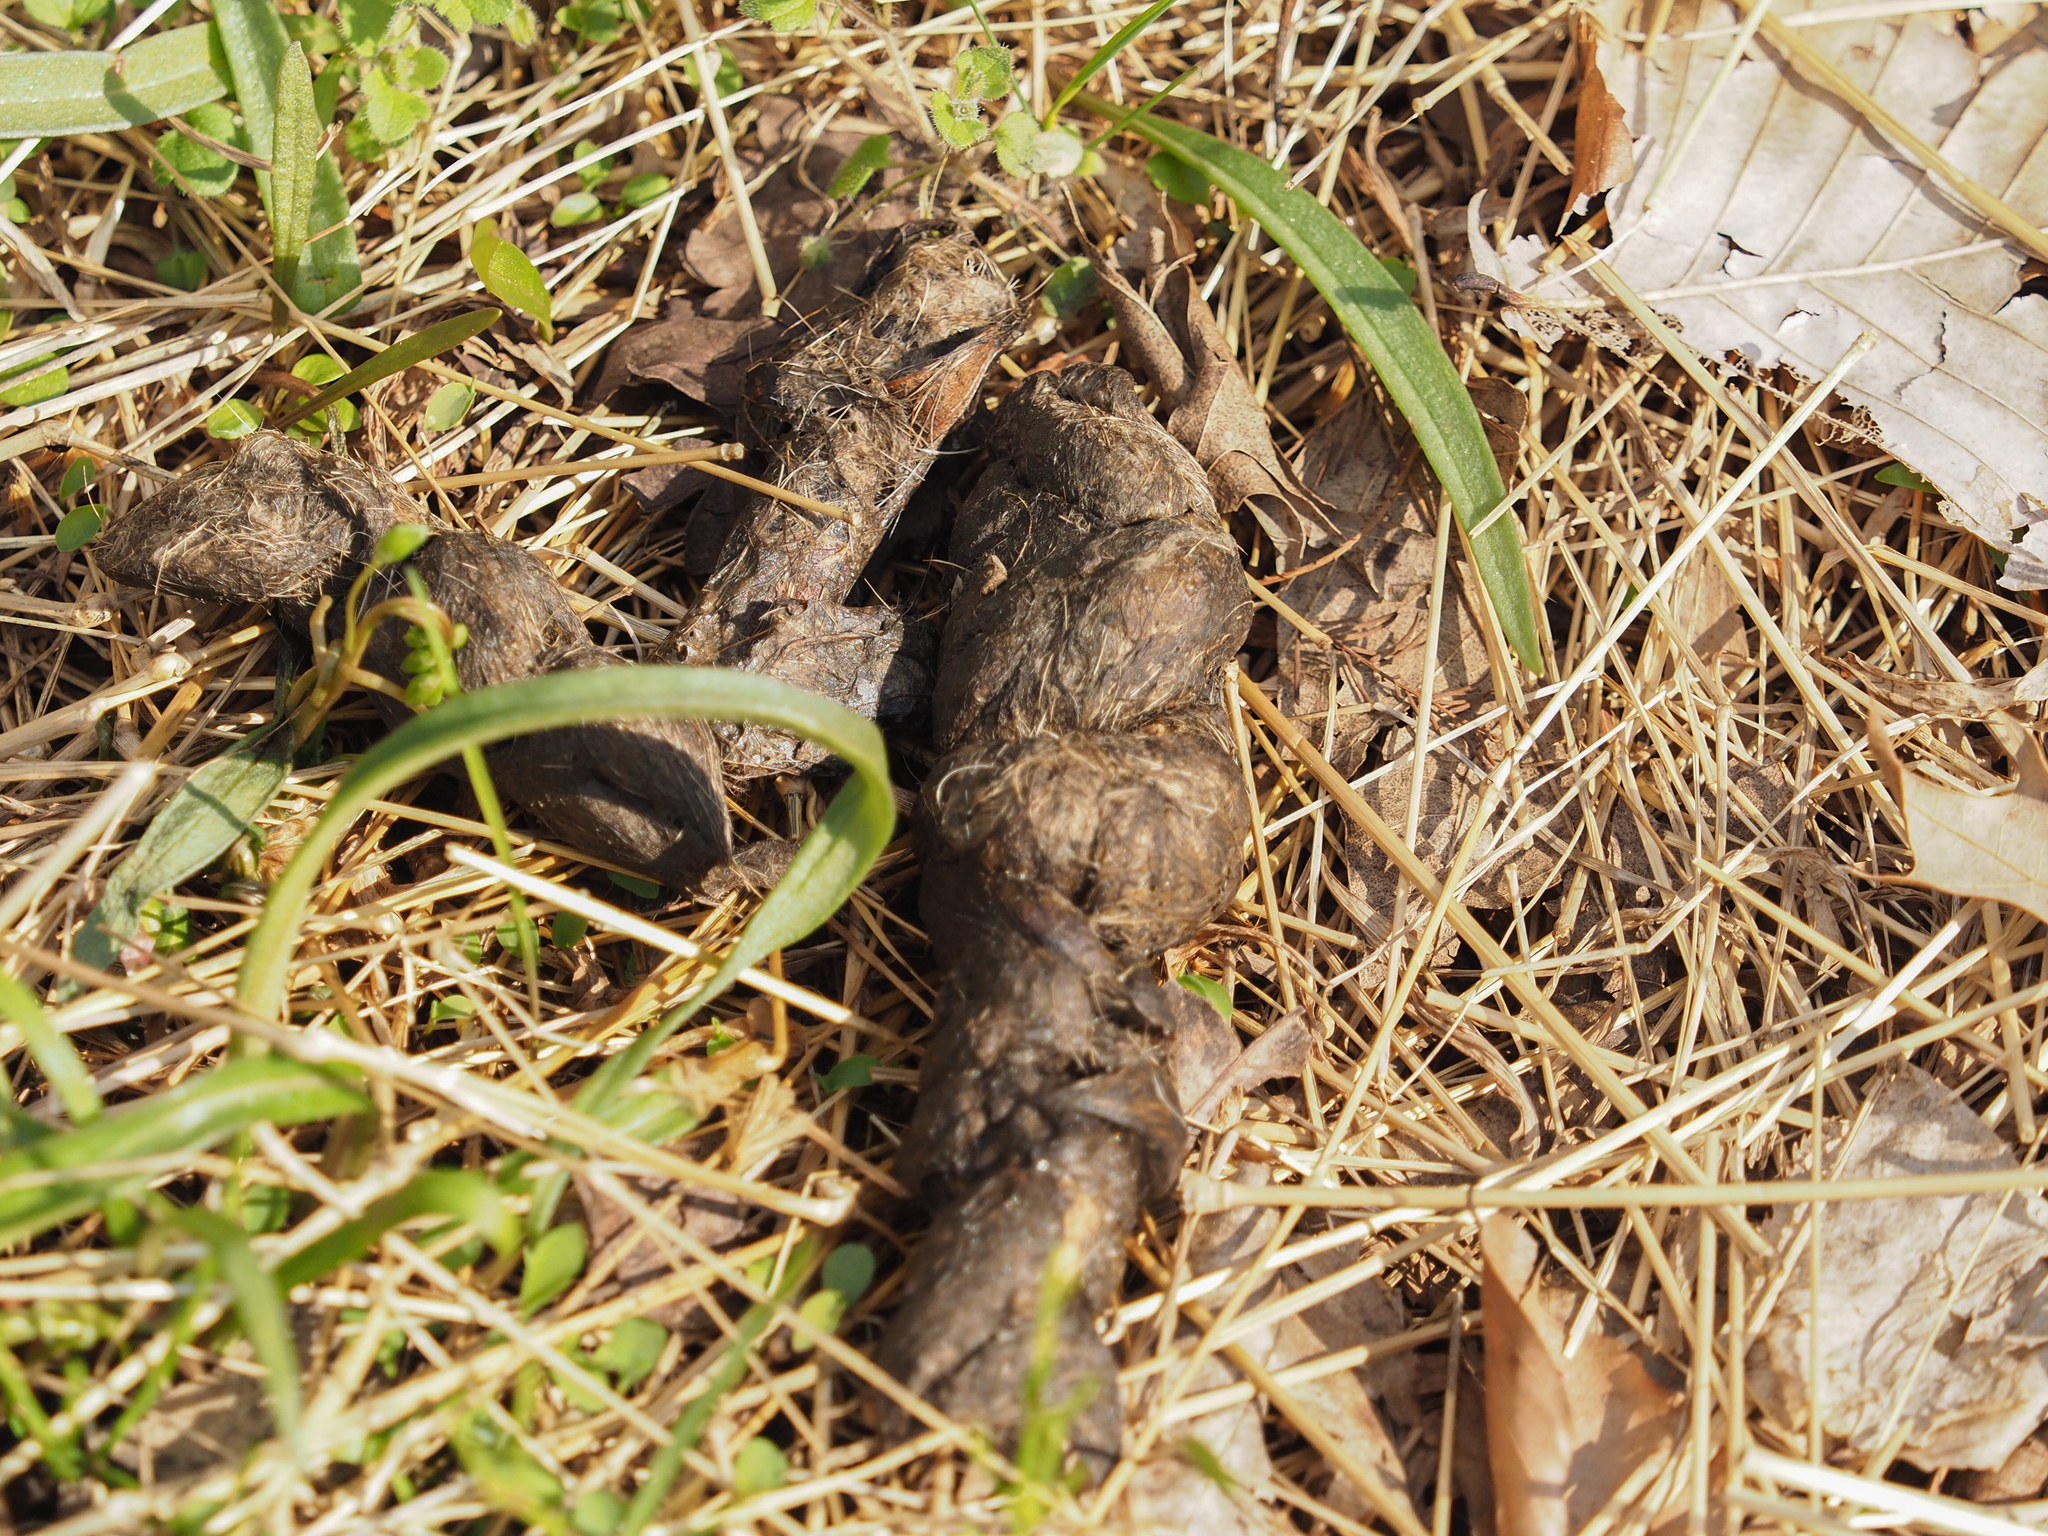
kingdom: Animalia
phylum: Chordata
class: Mammalia
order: Carnivora
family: Canidae
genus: Canis
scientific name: Canis latrans
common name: Coyote
